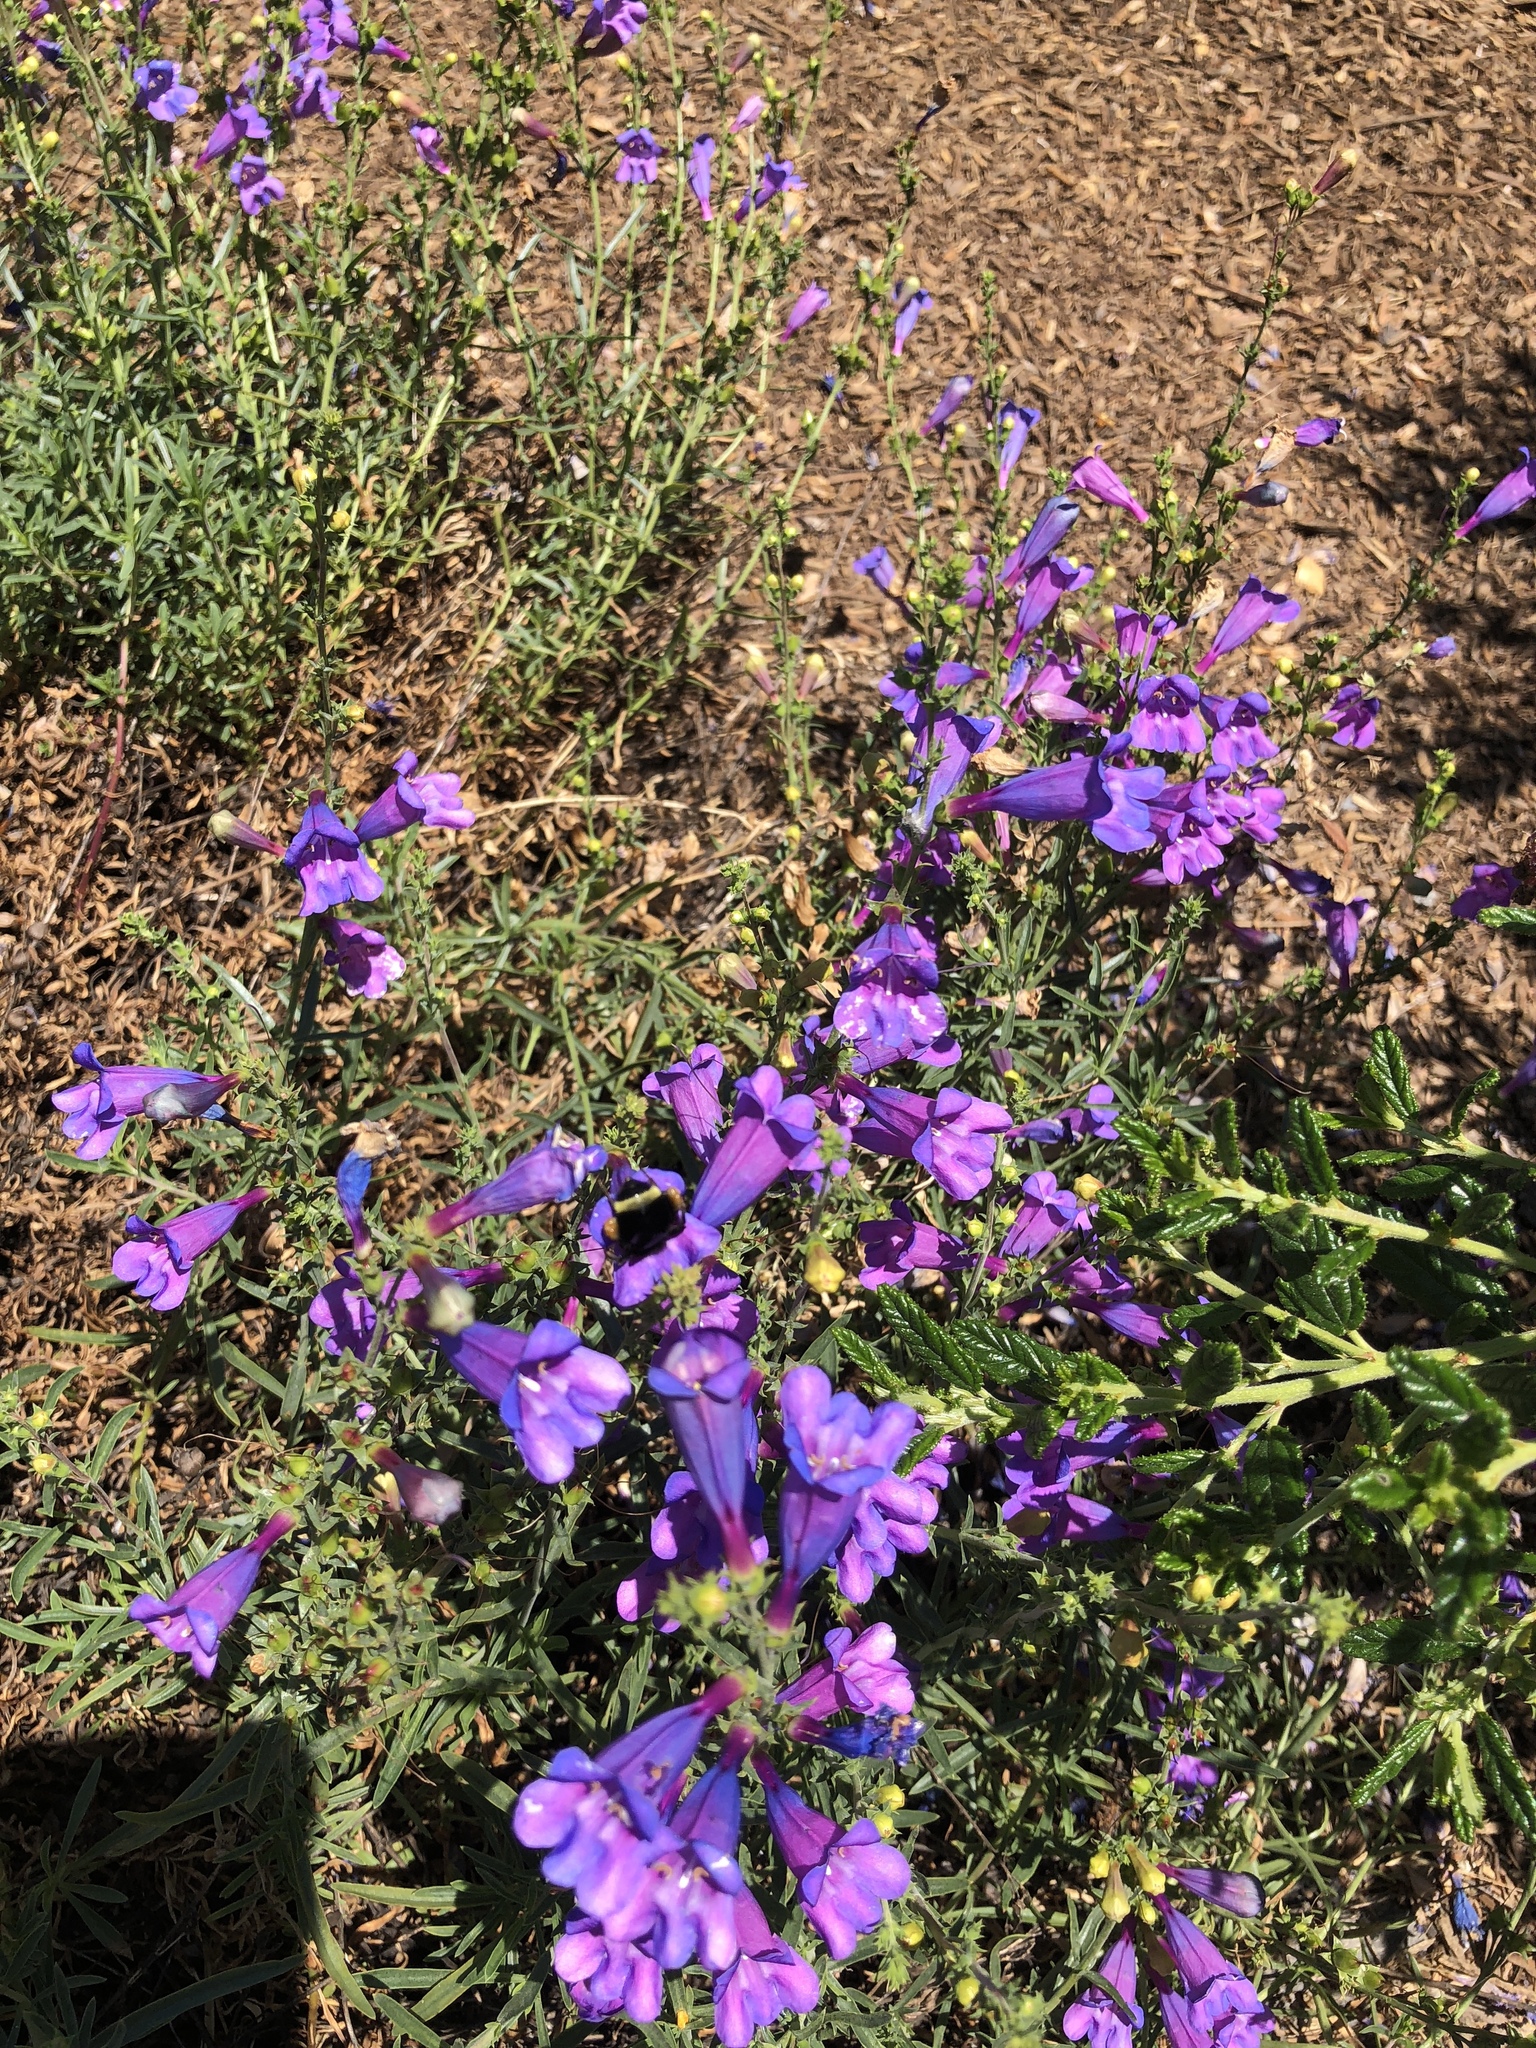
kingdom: Animalia
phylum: Arthropoda
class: Insecta
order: Hymenoptera
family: Apidae
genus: Bombus
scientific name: Bombus
